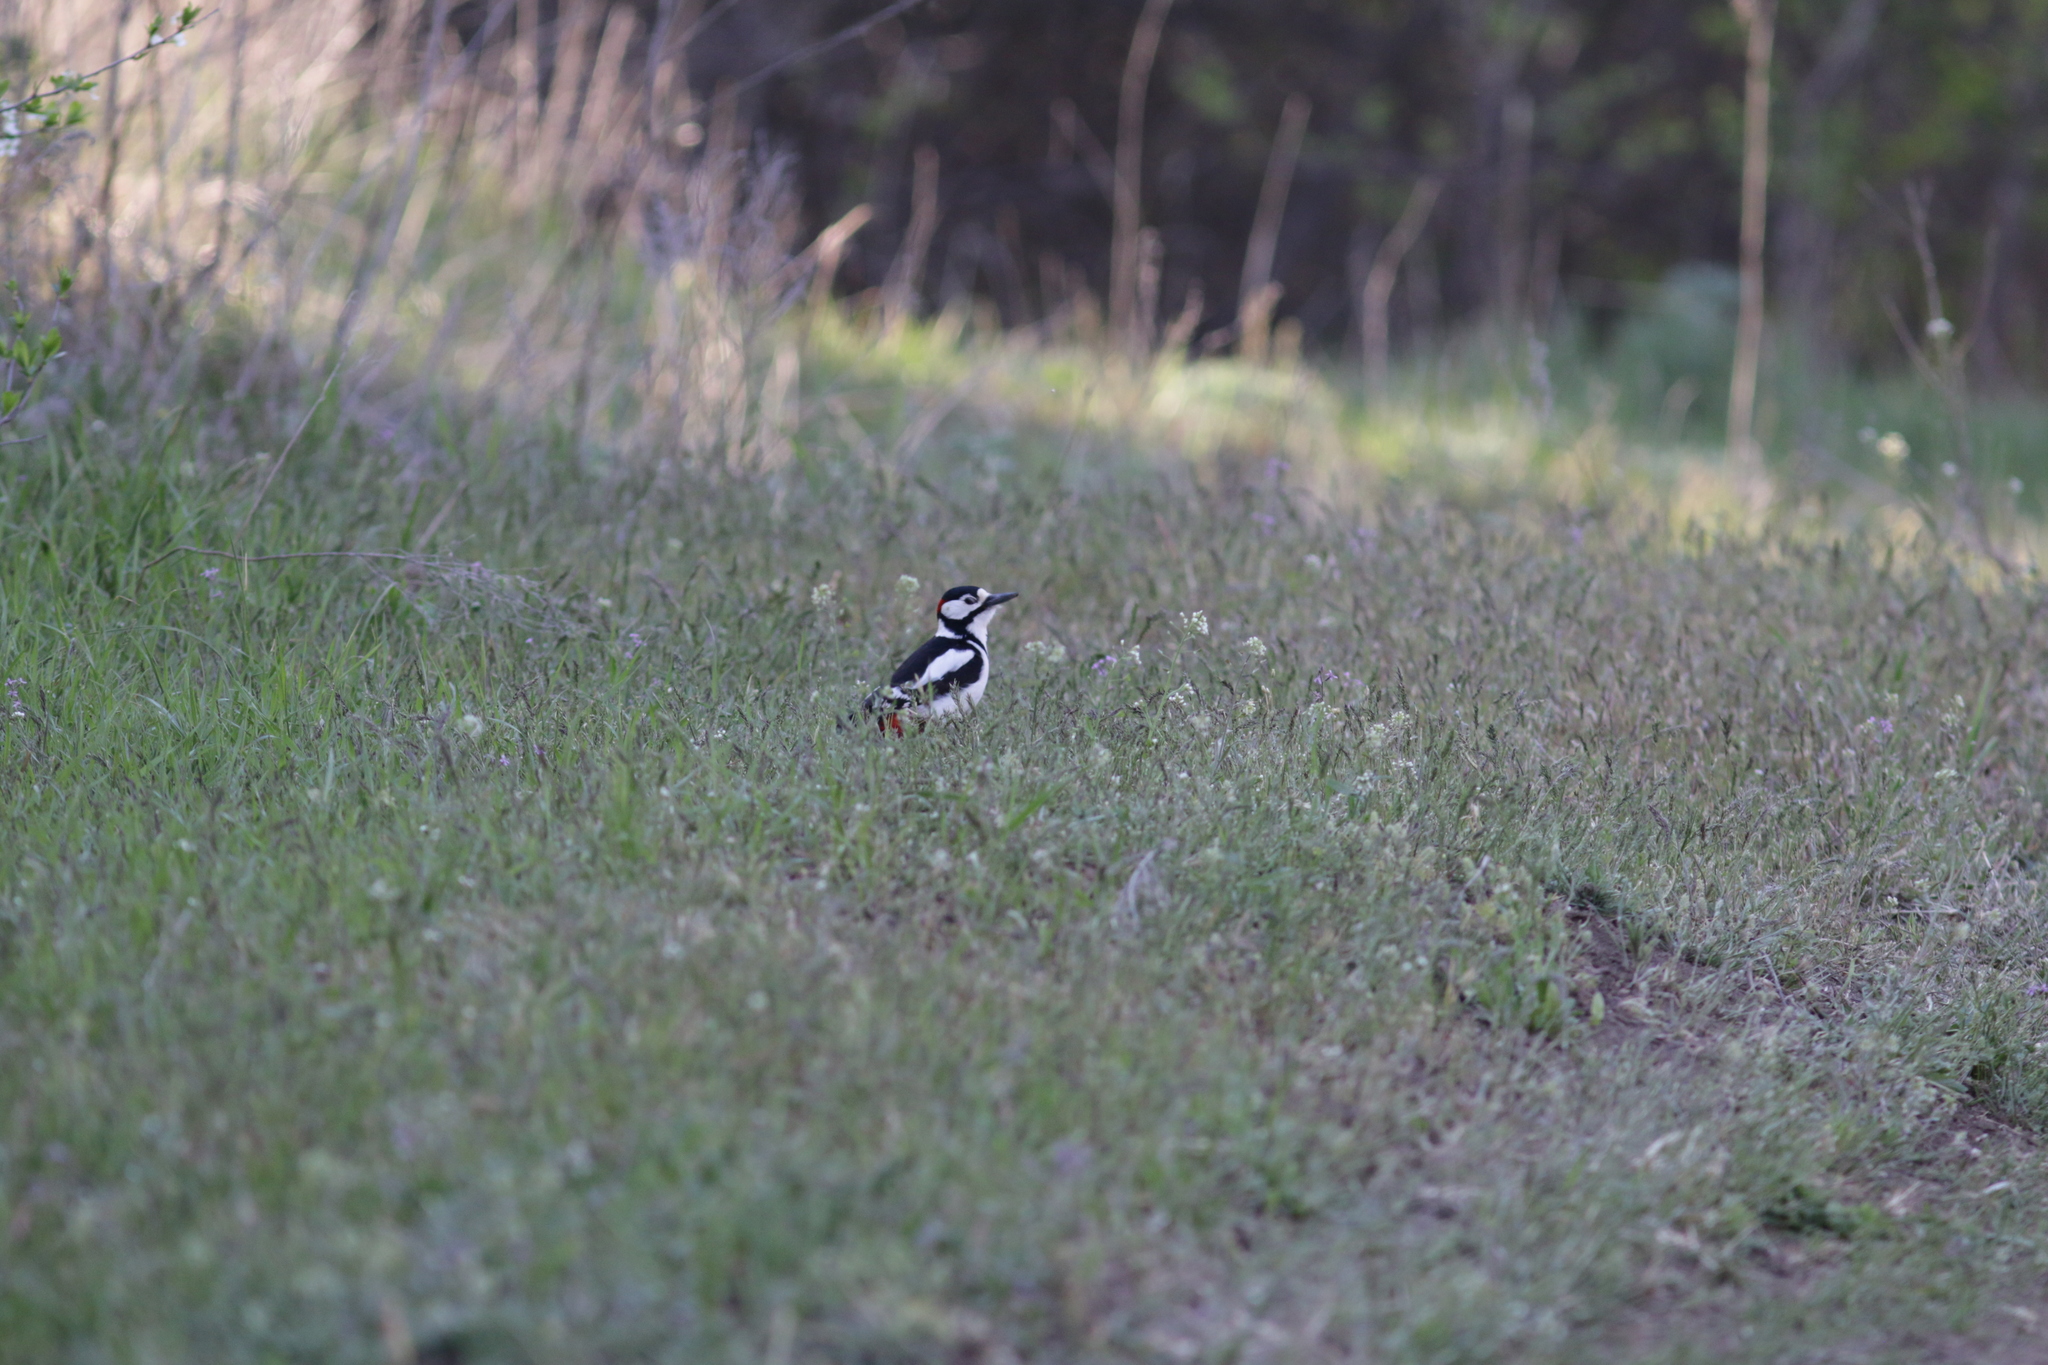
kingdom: Animalia
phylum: Chordata
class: Aves
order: Piciformes
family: Picidae
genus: Dendrocopos
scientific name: Dendrocopos major
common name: Great spotted woodpecker
